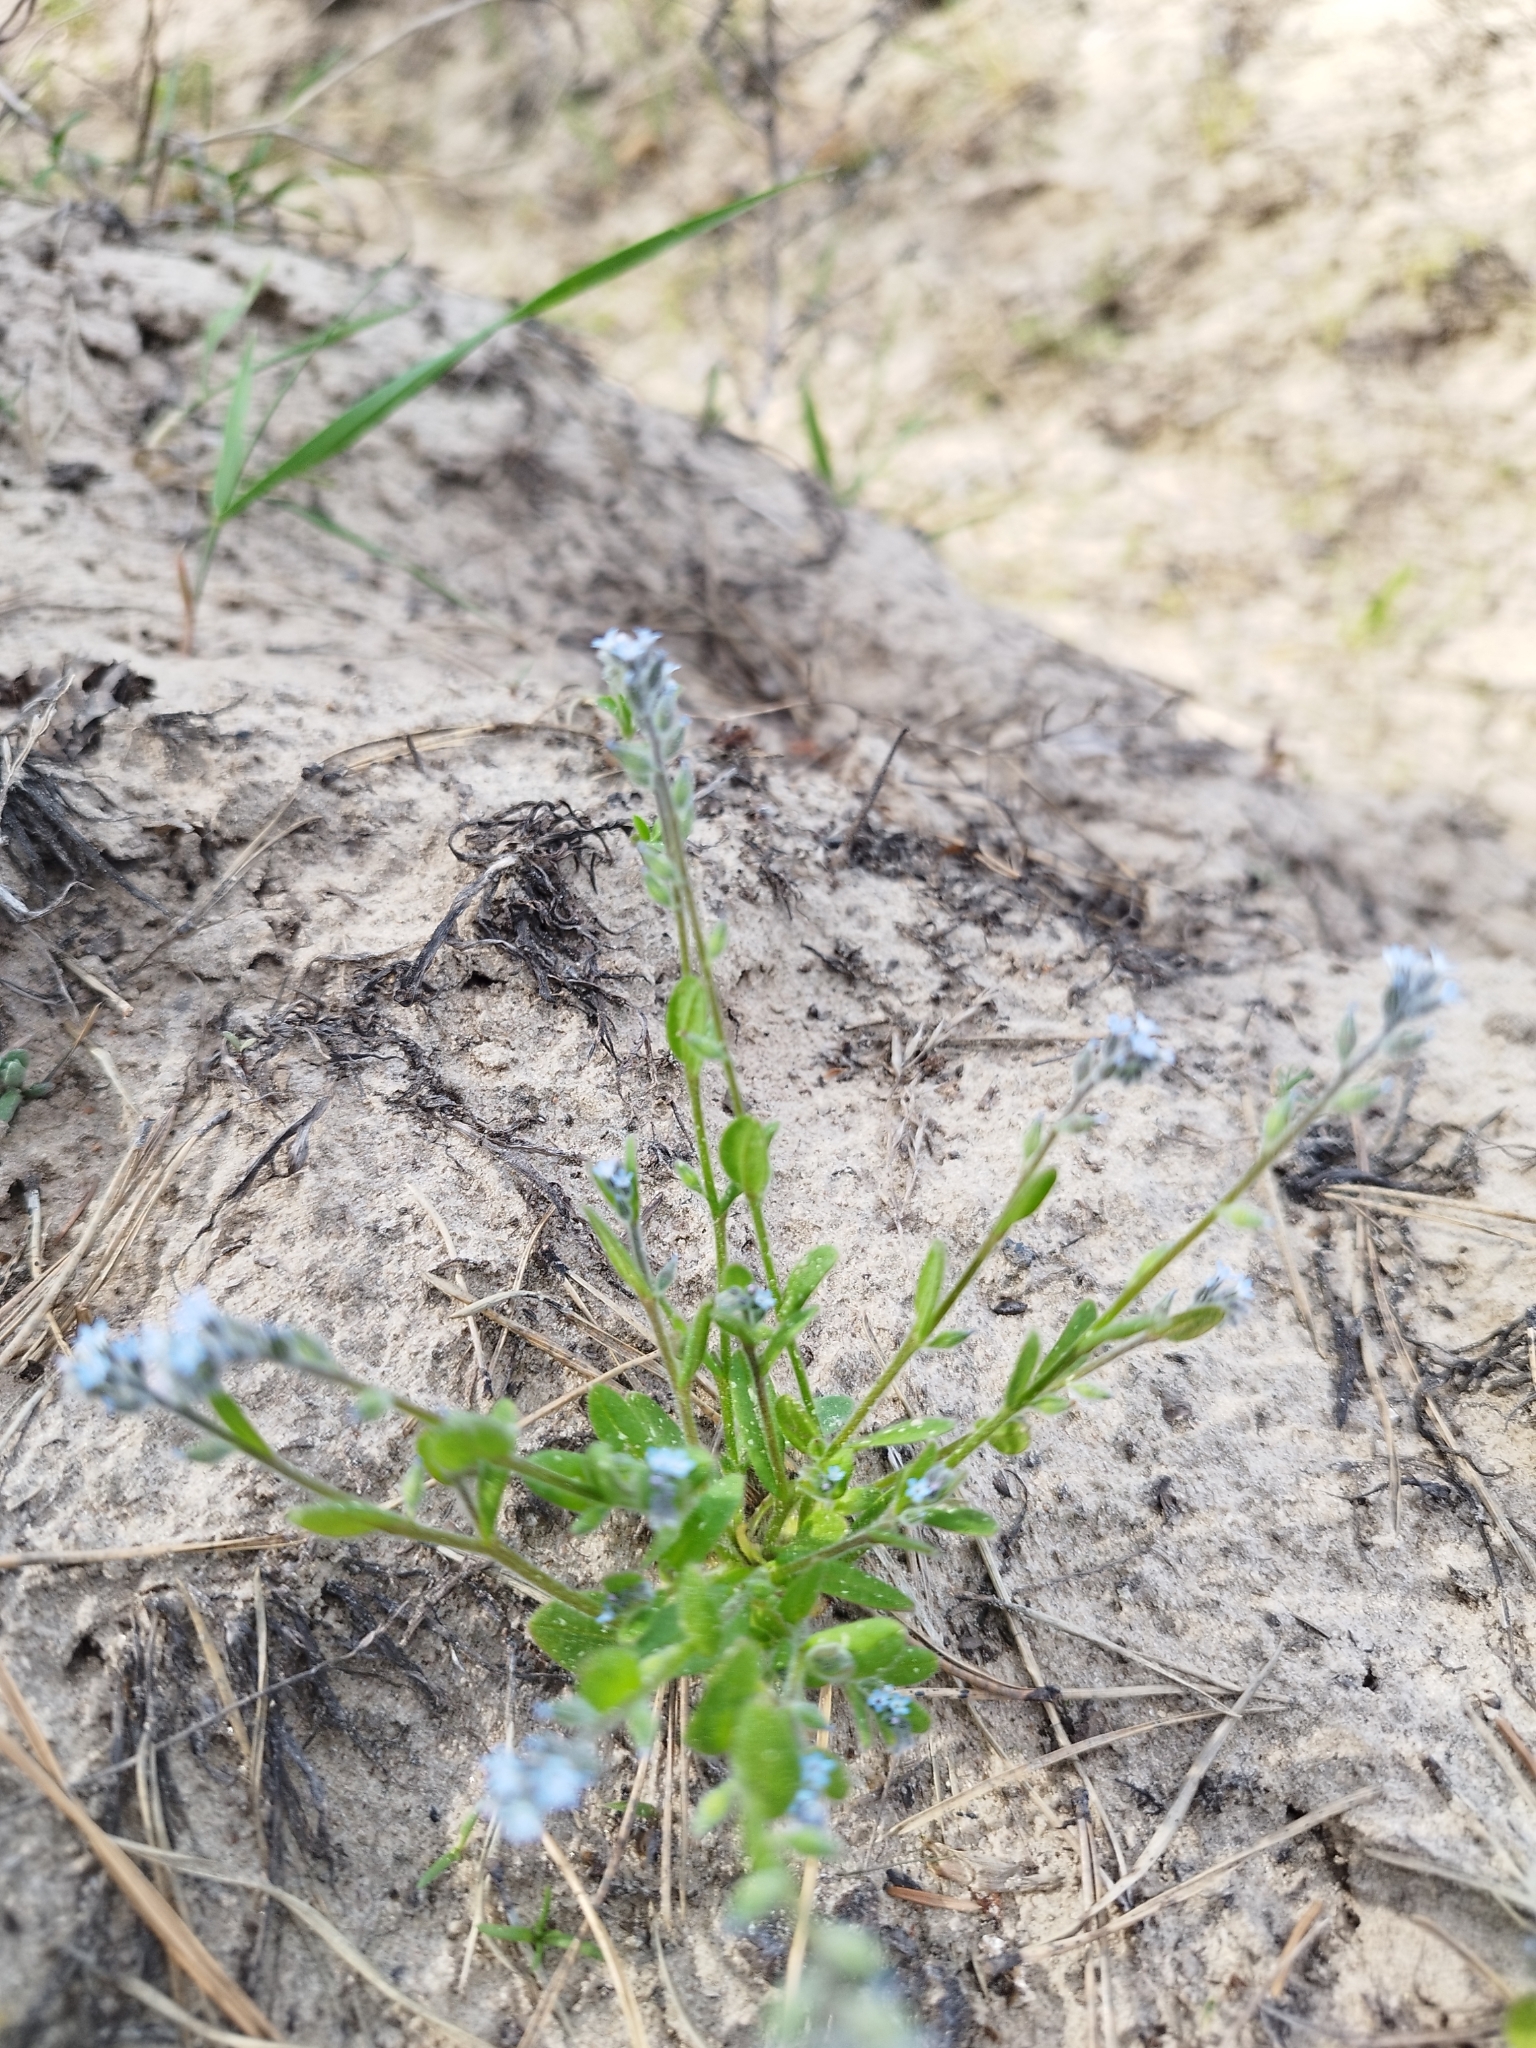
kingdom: Plantae
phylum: Tracheophyta
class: Magnoliopsida
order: Boraginales
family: Boraginaceae
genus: Myosotis
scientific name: Myosotis stricta
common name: Strict forget-me-not
